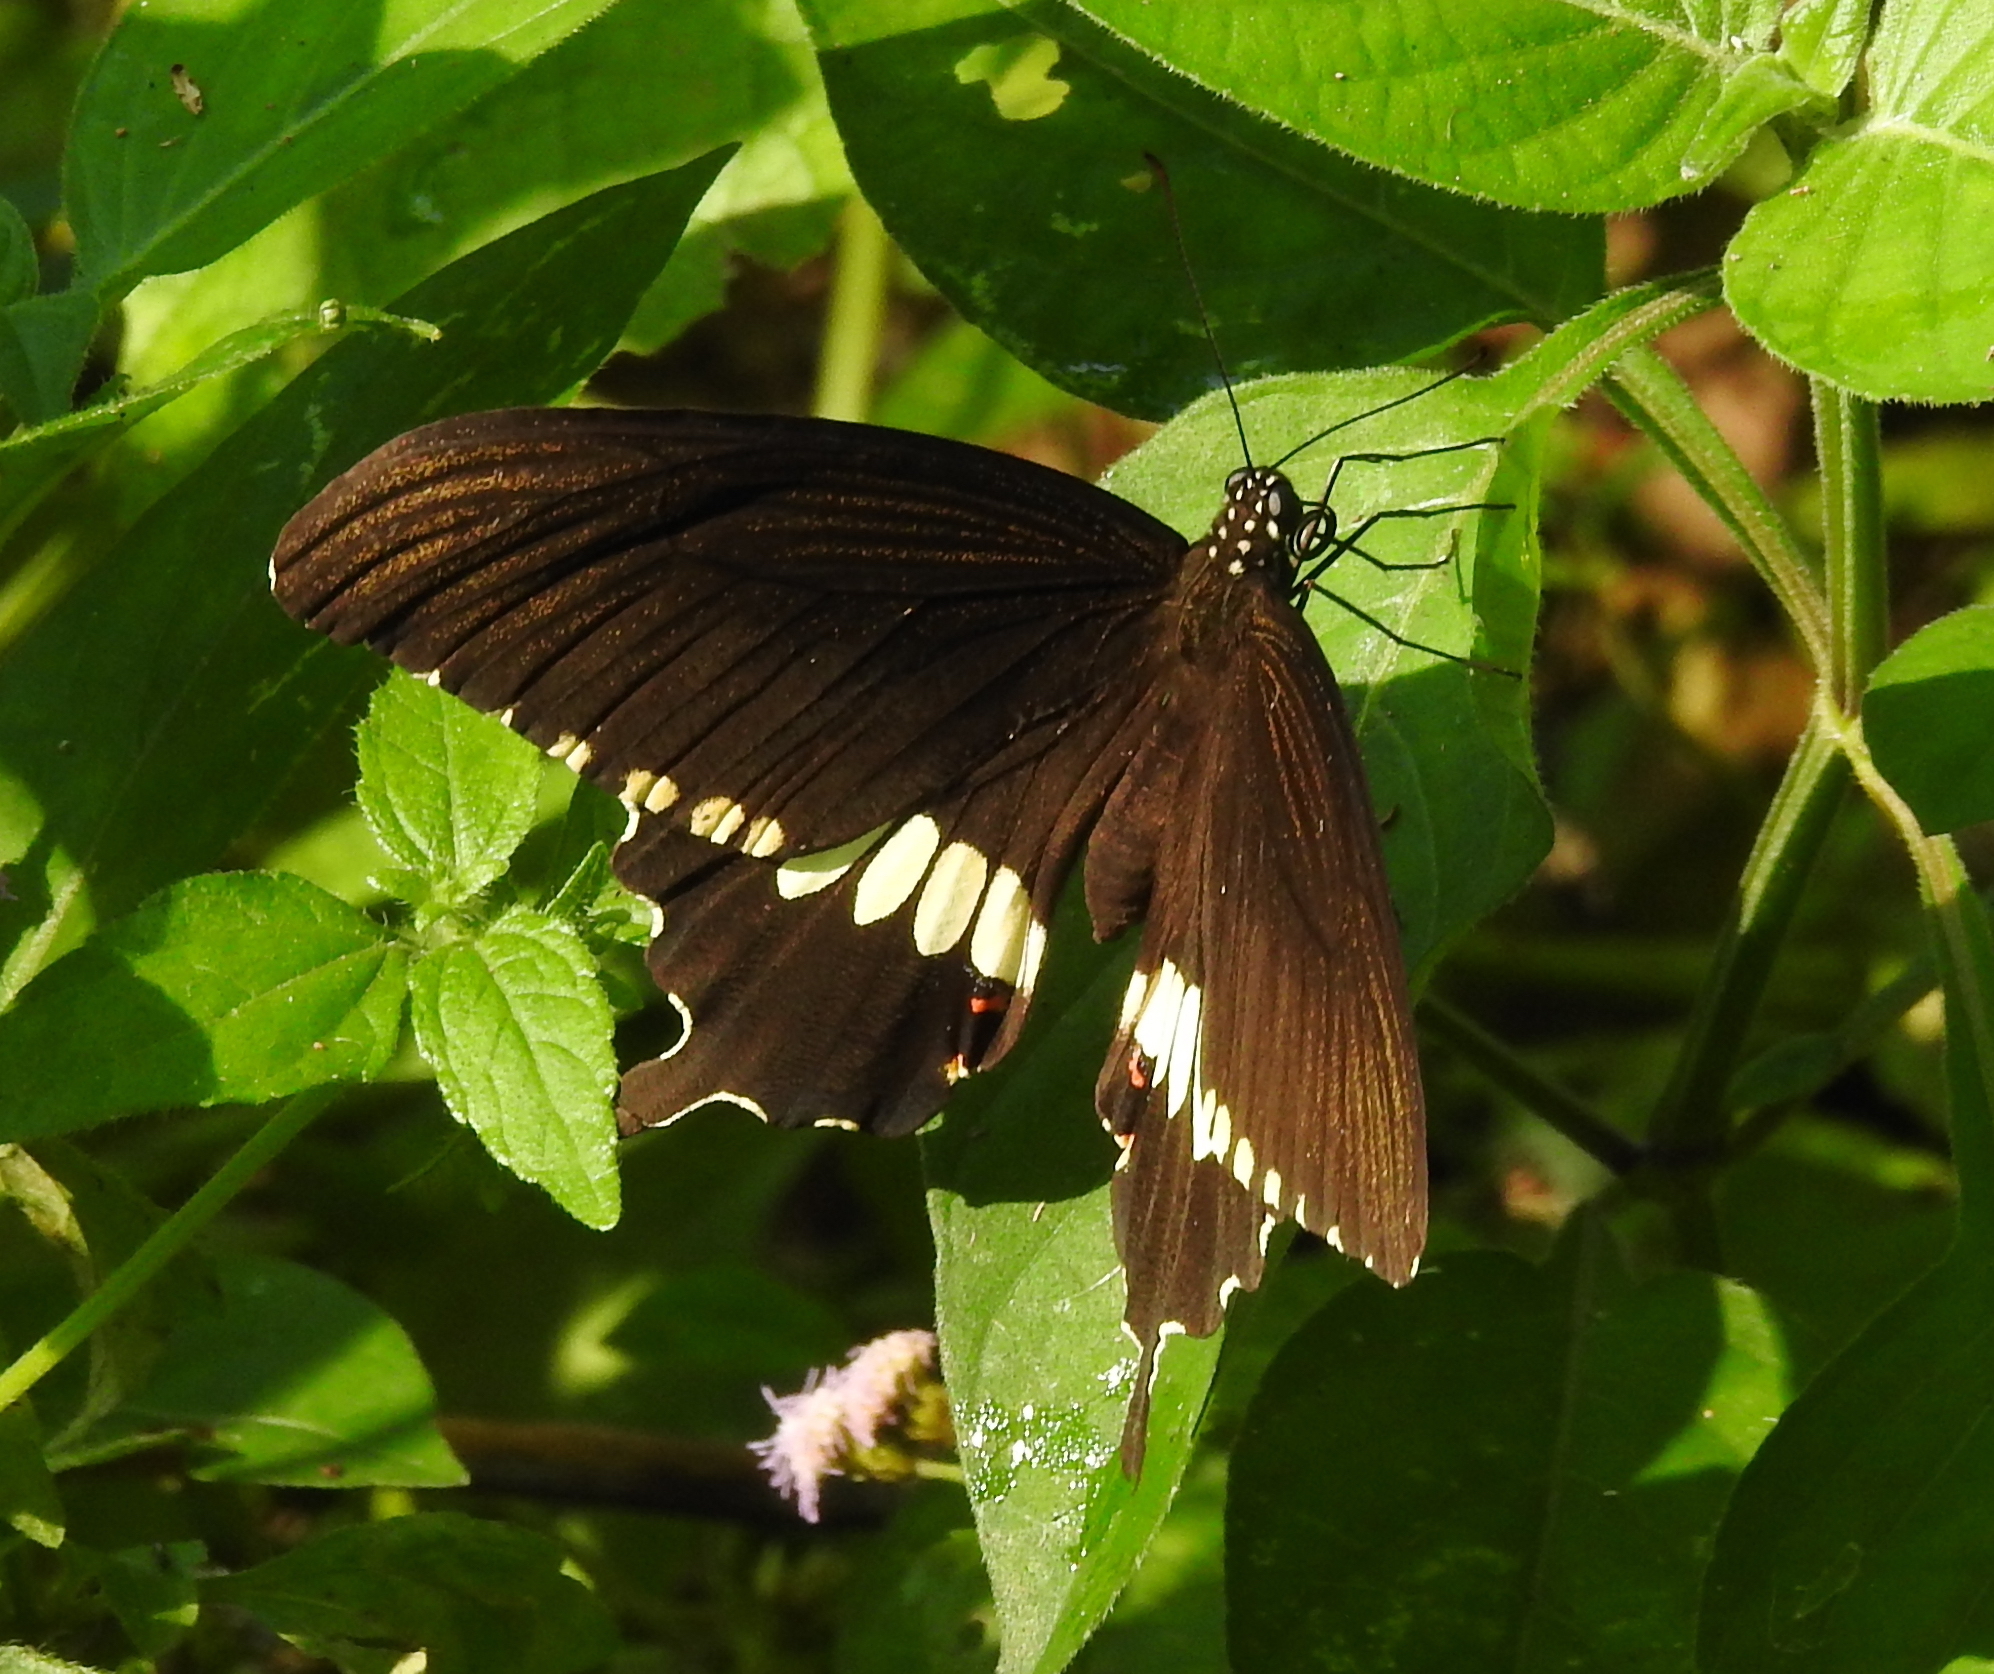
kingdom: Animalia
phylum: Arthropoda
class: Insecta
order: Lepidoptera
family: Papilionidae
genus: Papilio
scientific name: Papilio polytes
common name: Common mormon
